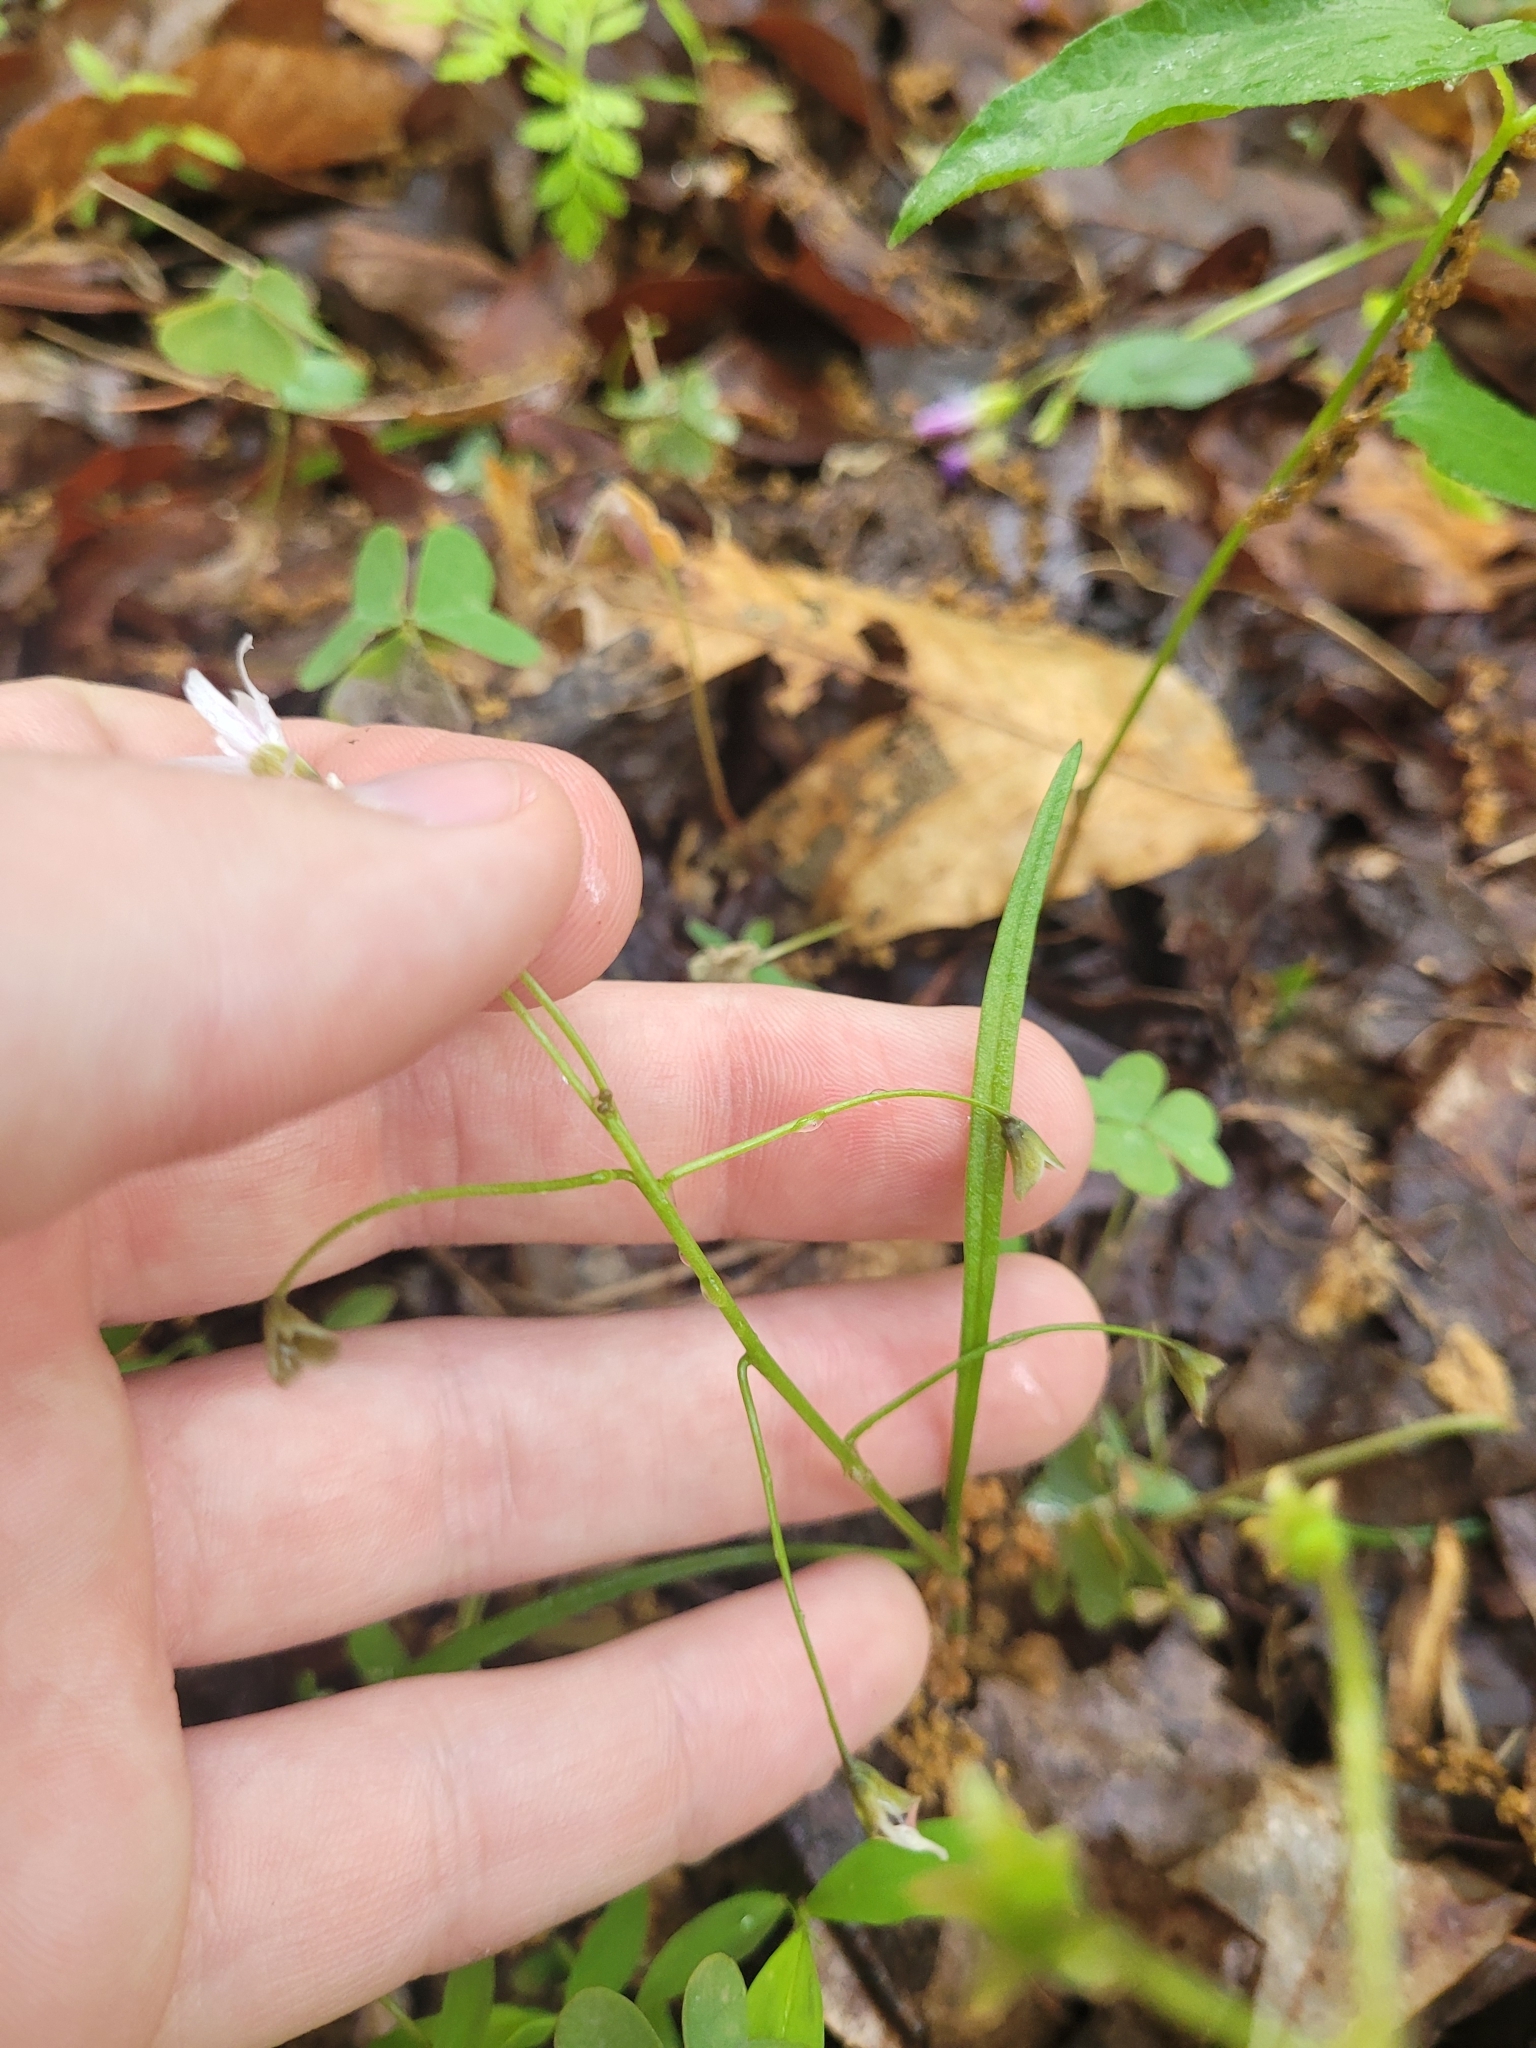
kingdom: Plantae
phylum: Tracheophyta
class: Magnoliopsida
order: Caryophyllales
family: Montiaceae
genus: Claytonia
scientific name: Claytonia virginica
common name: Virginia springbeauty
